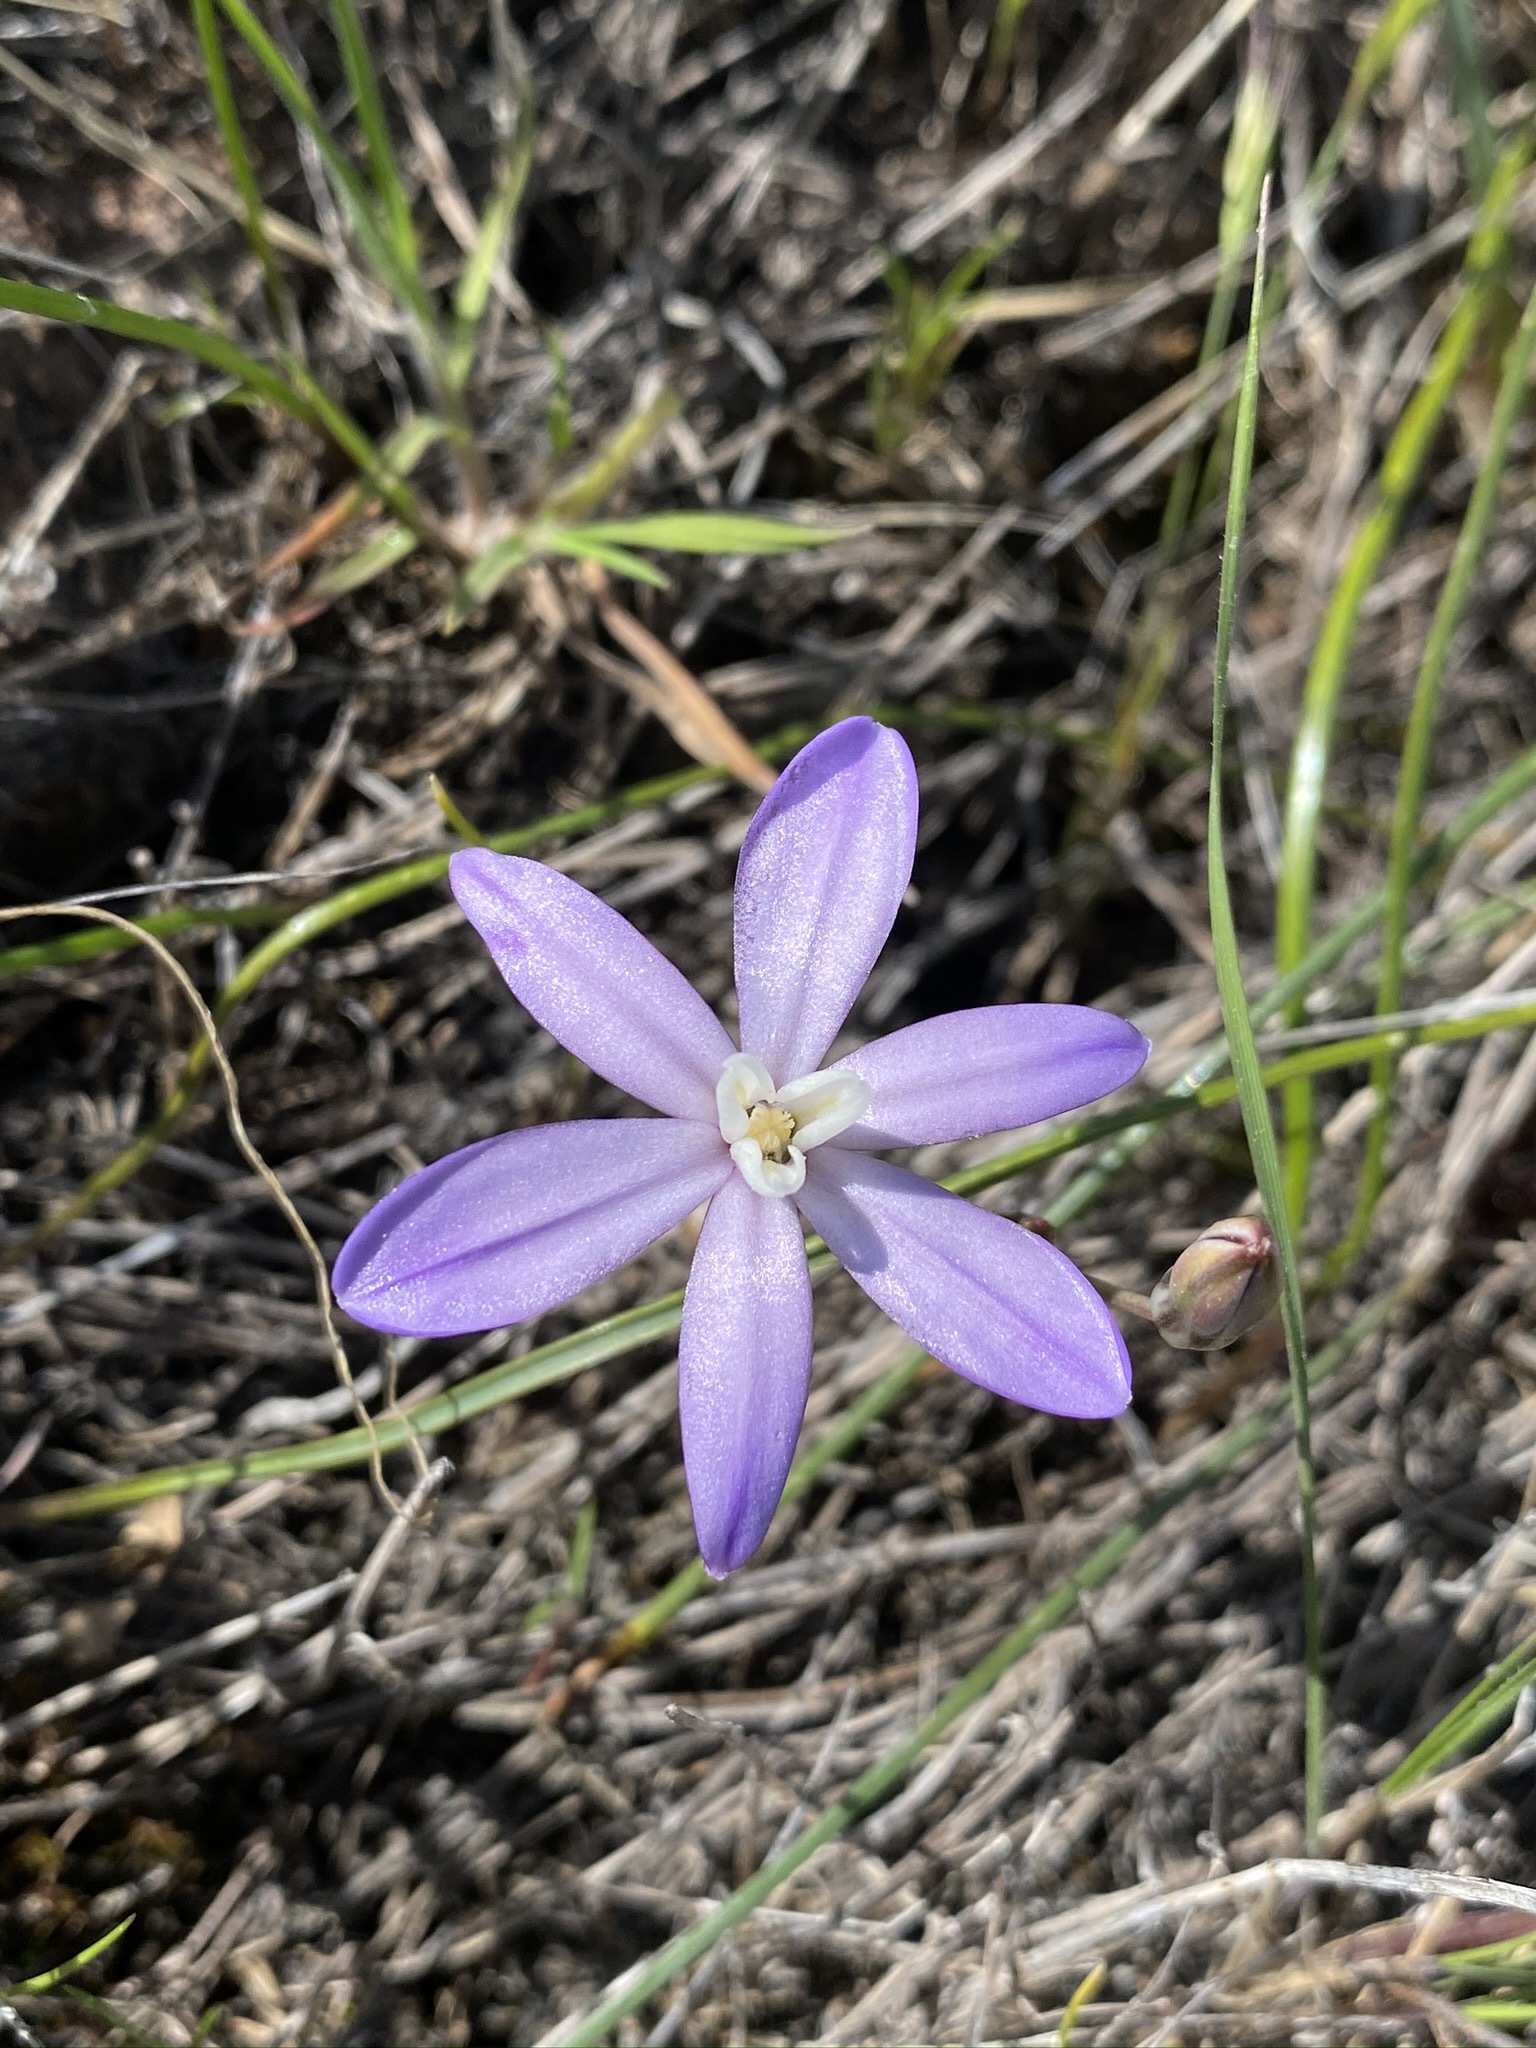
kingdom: Plantae
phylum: Tracheophyta
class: Liliopsida
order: Asparagales
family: Asparagaceae
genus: Brodiaea
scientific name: Brodiaea nana
